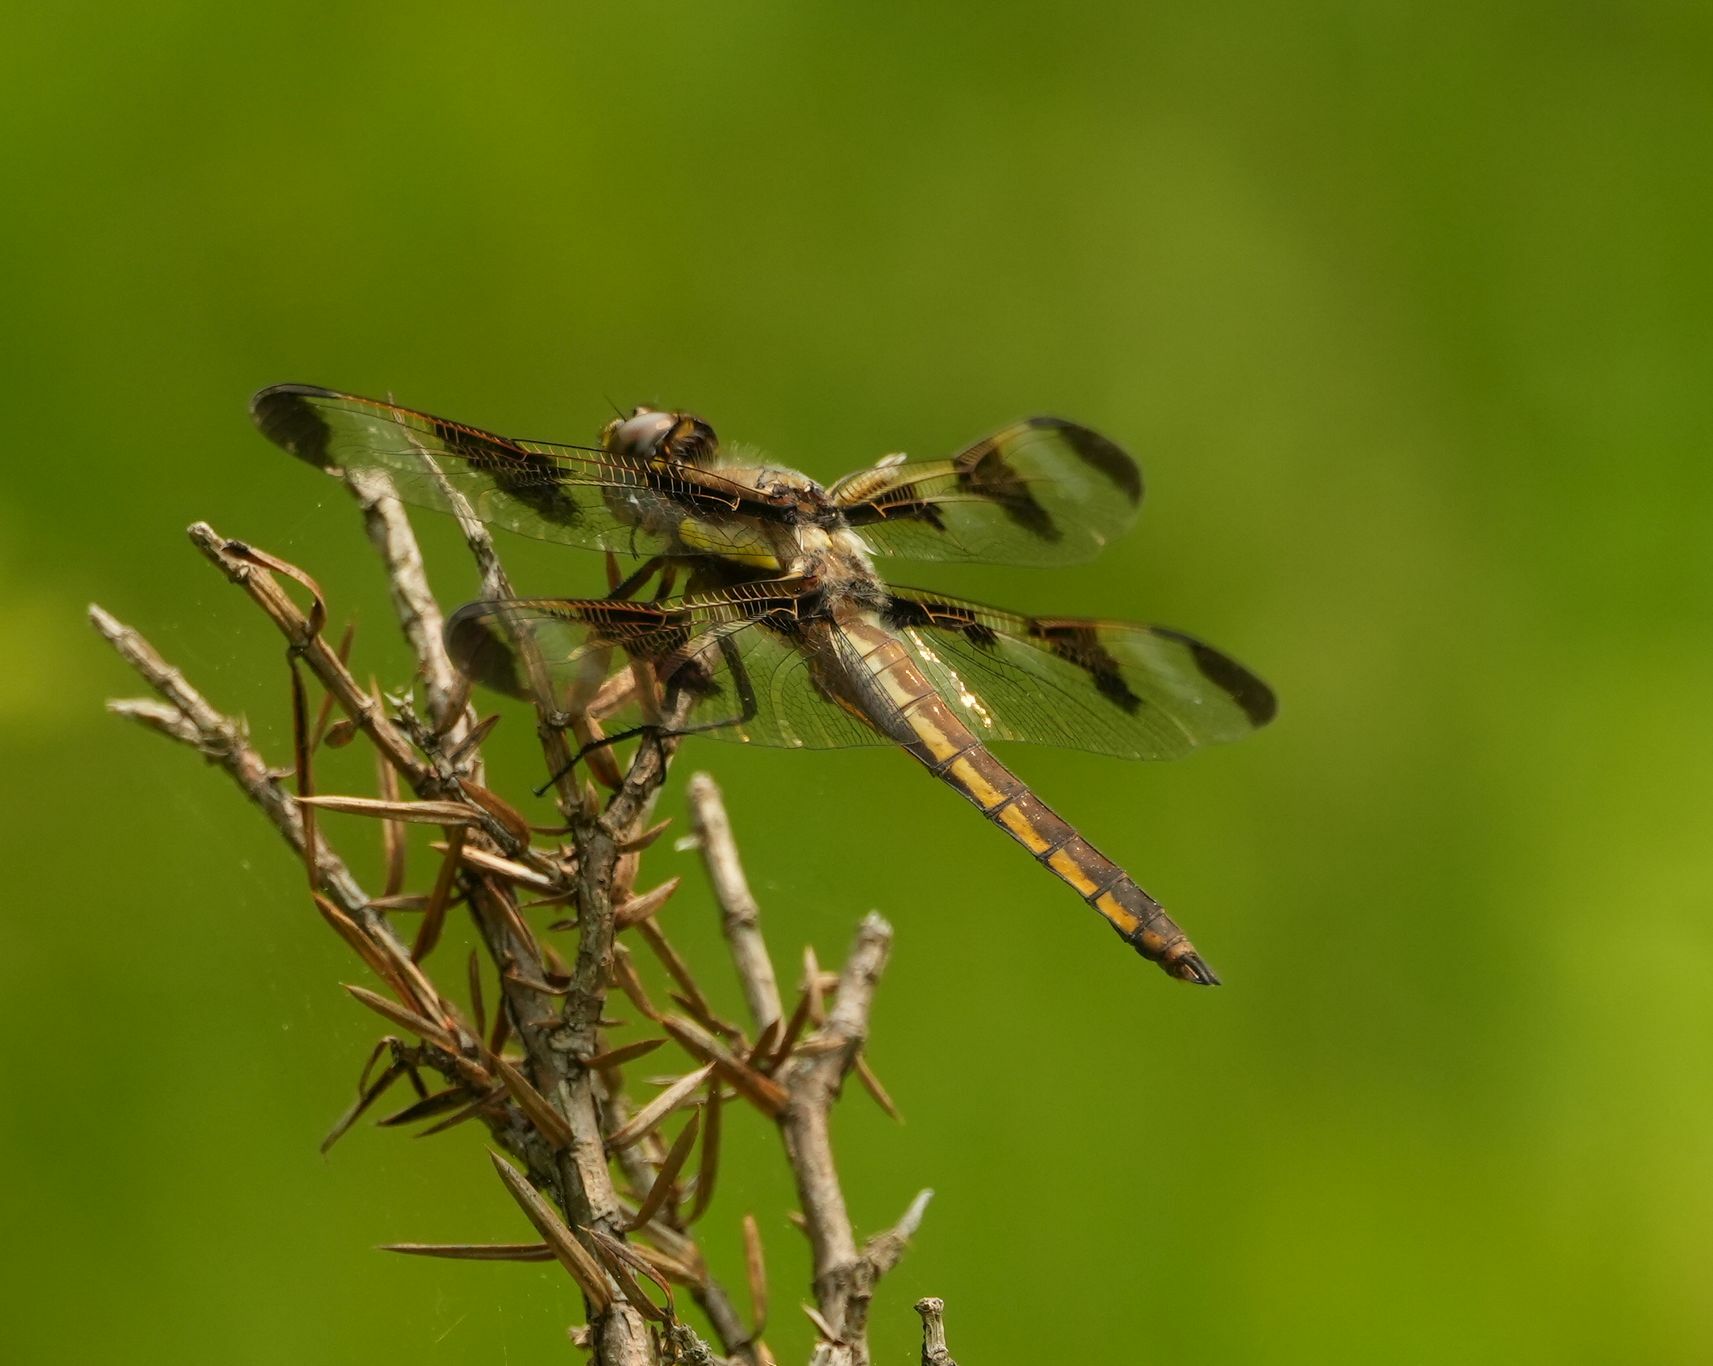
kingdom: Animalia
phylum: Arthropoda
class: Insecta
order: Odonata
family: Libellulidae
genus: Libellula
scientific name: Libellula pulchella
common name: Twelve-spotted skimmer
